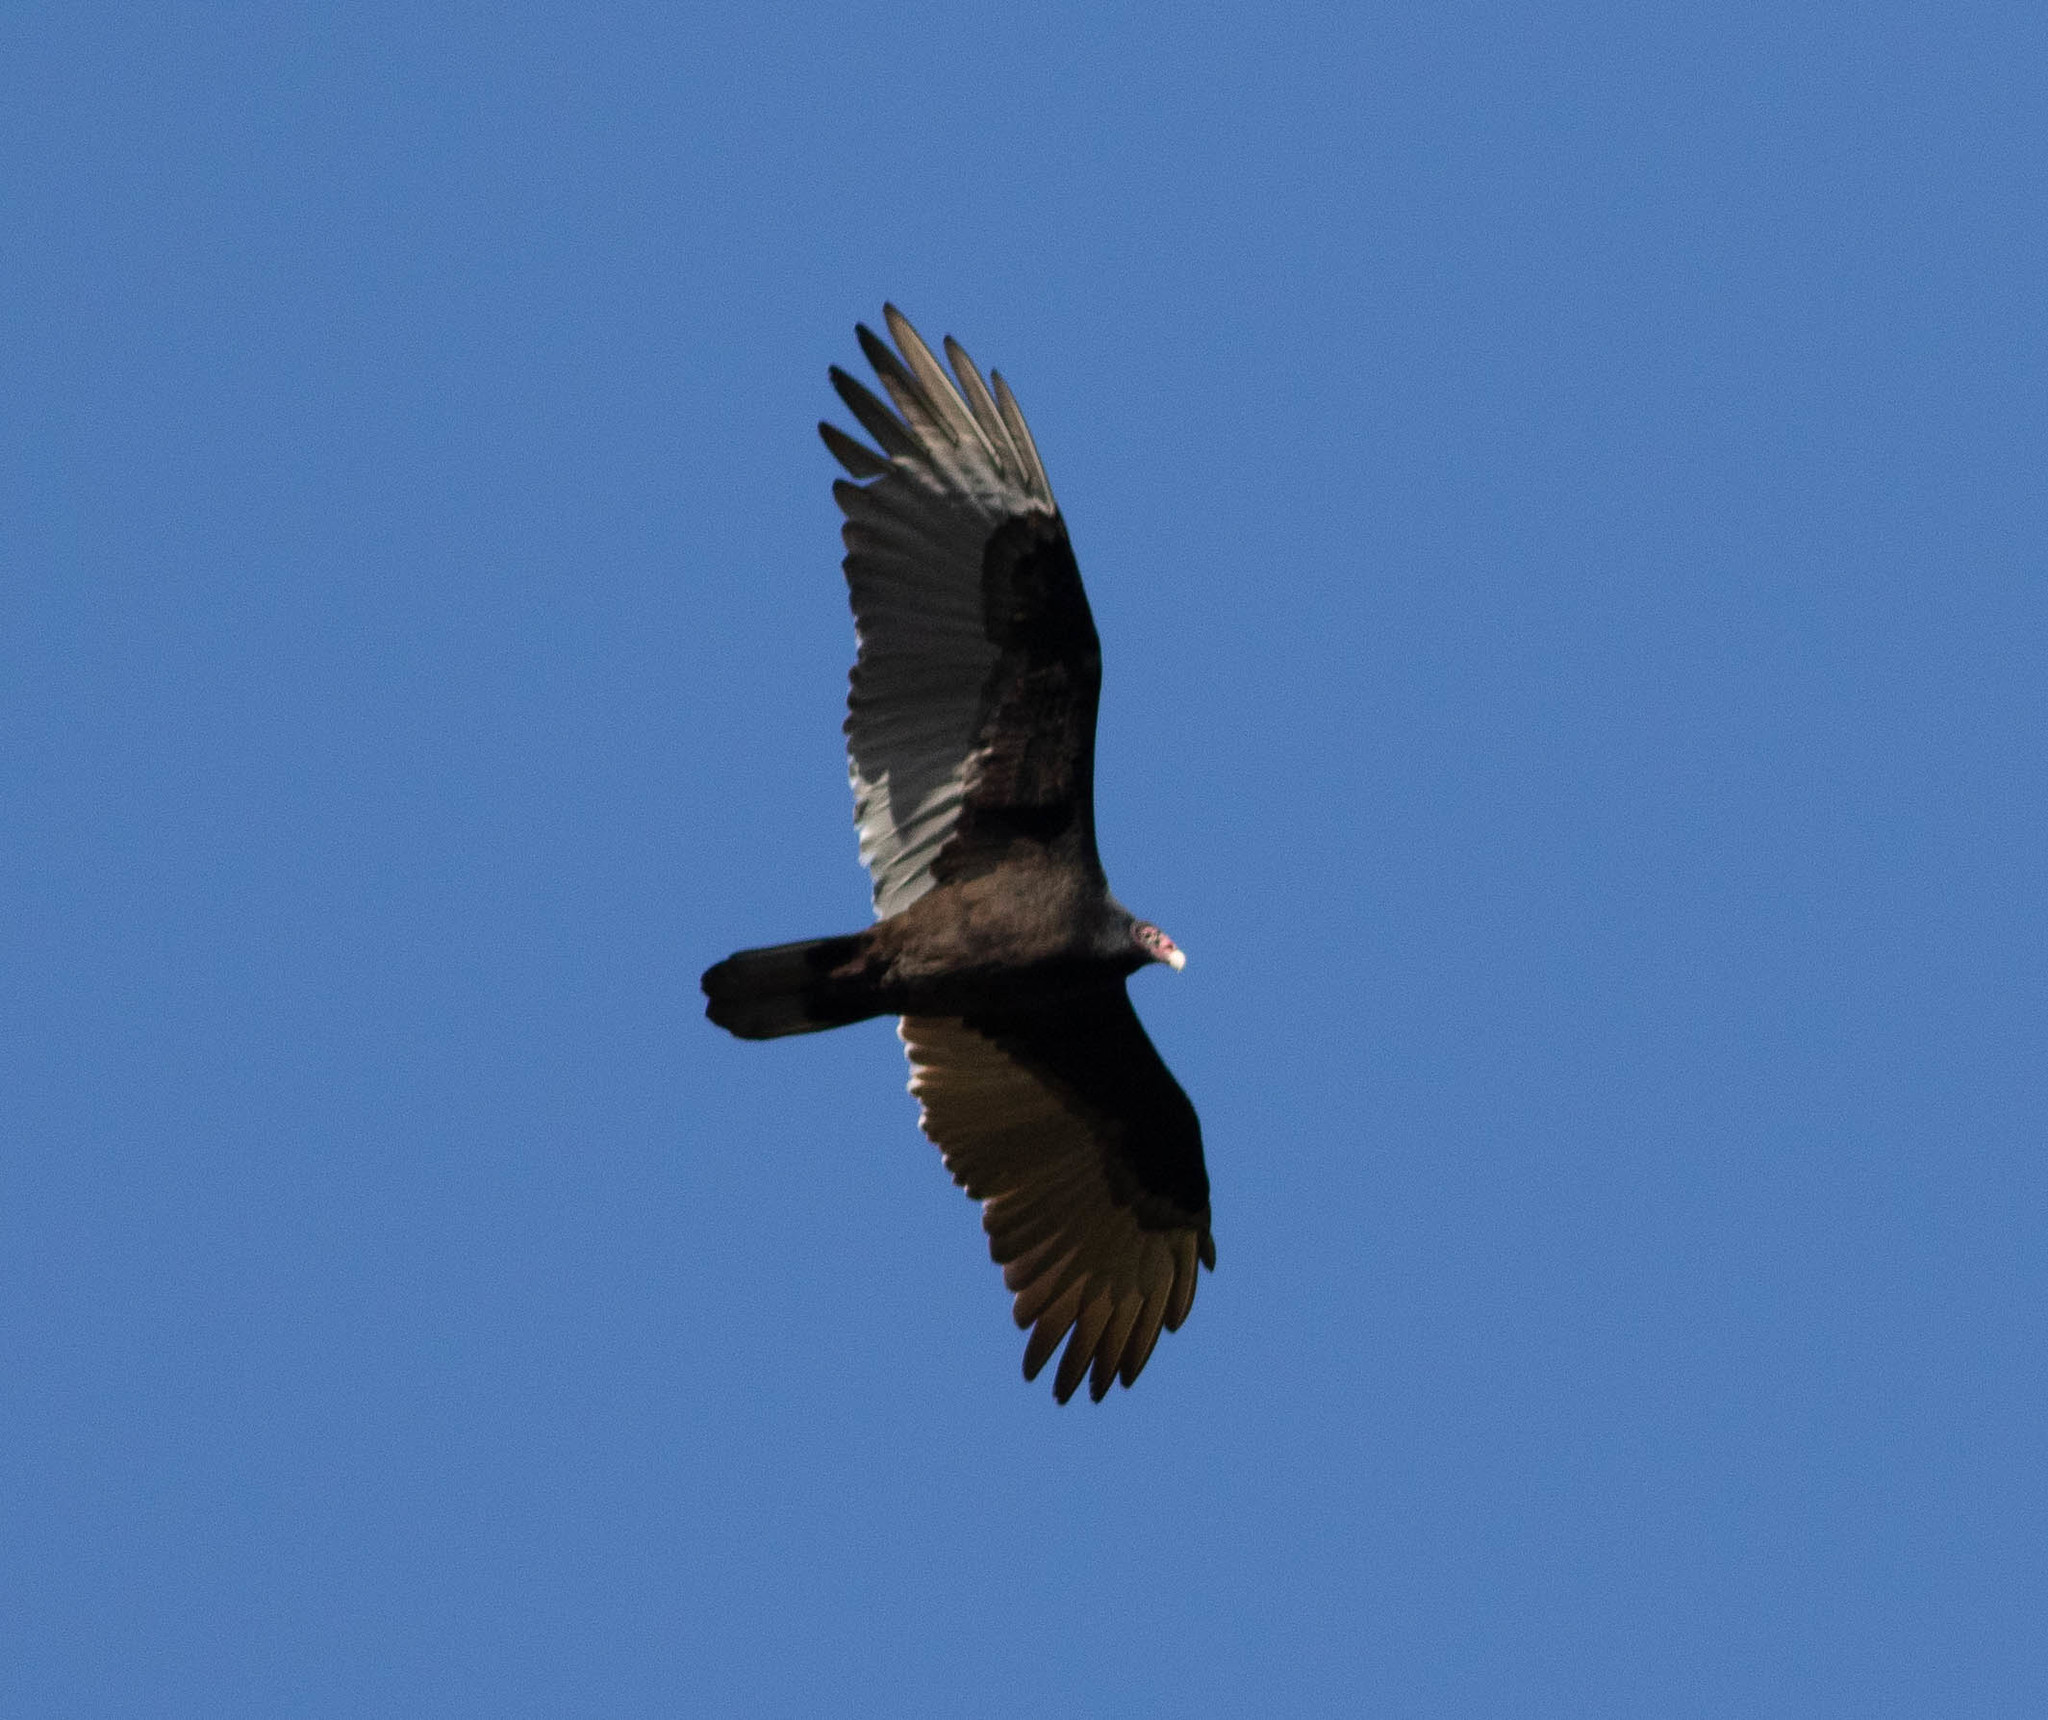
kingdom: Animalia
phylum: Chordata
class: Aves
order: Accipitriformes
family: Cathartidae
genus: Cathartes
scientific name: Cathartes aura
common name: Turkey vulture
